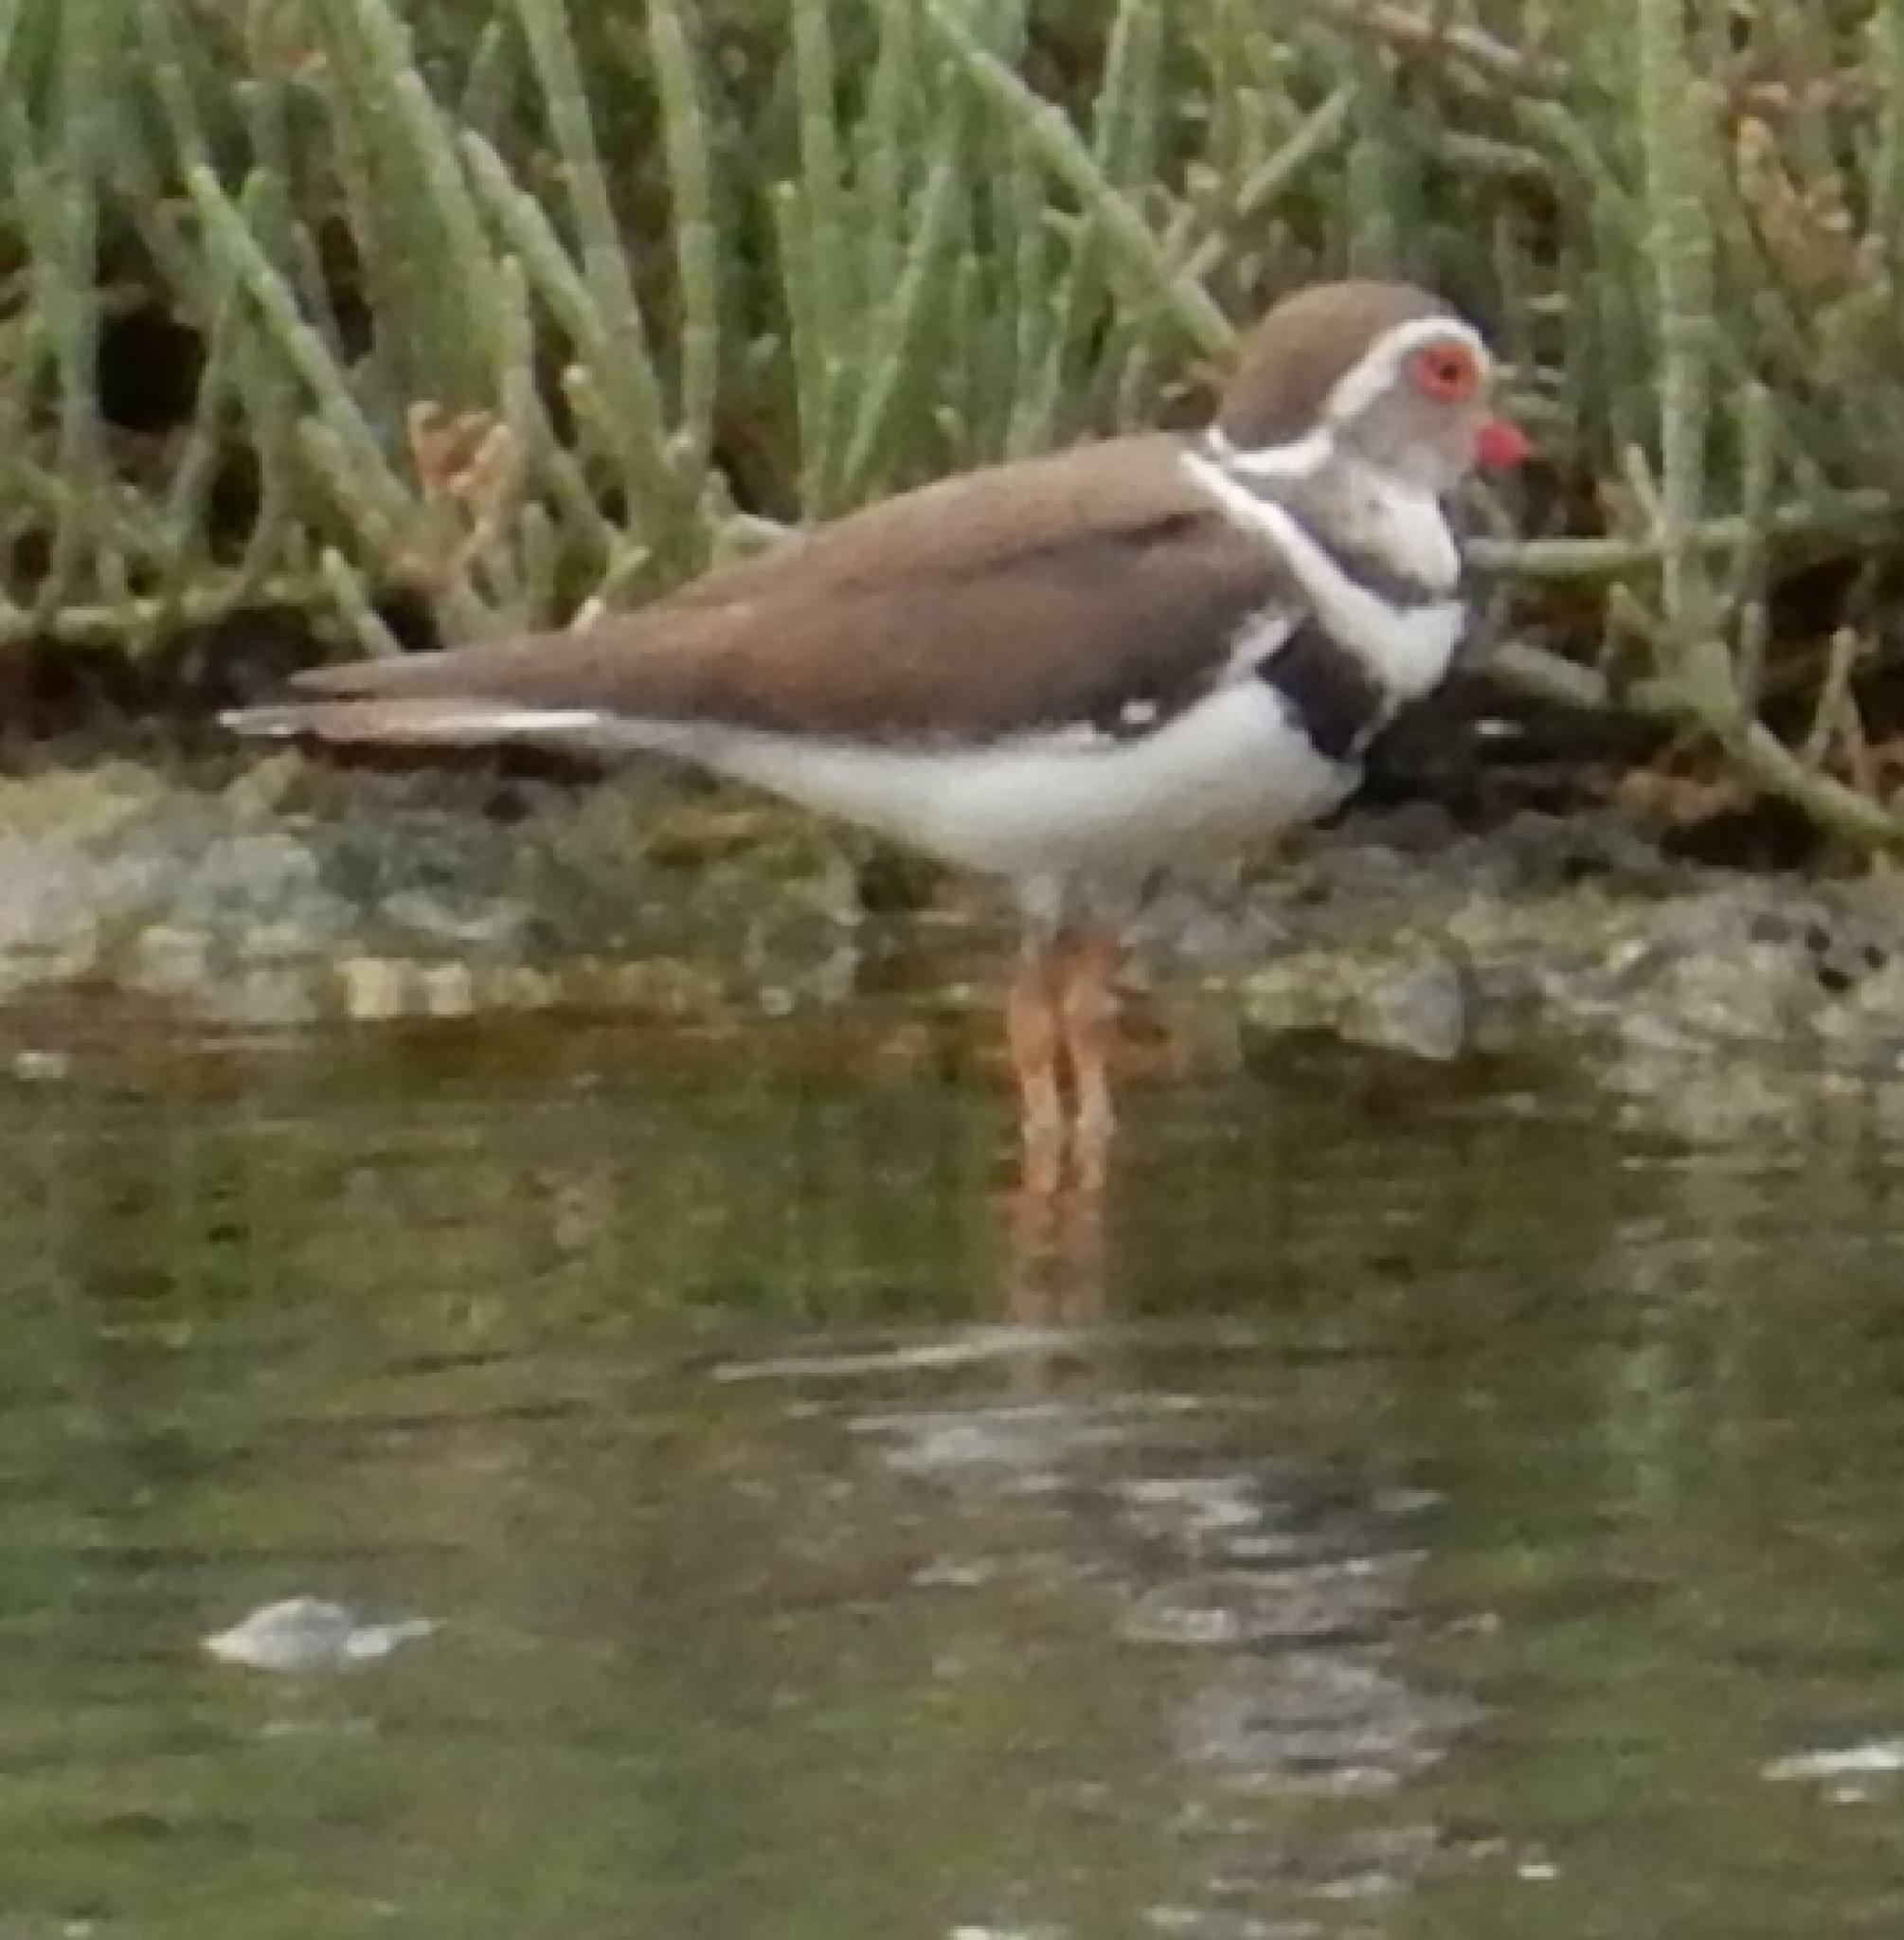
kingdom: Animalia
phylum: Chordata
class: Aves
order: Charadriiformes
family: Charadriidae
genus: Charadrius
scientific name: Charadrius tricollaris
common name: Three-banded plover
